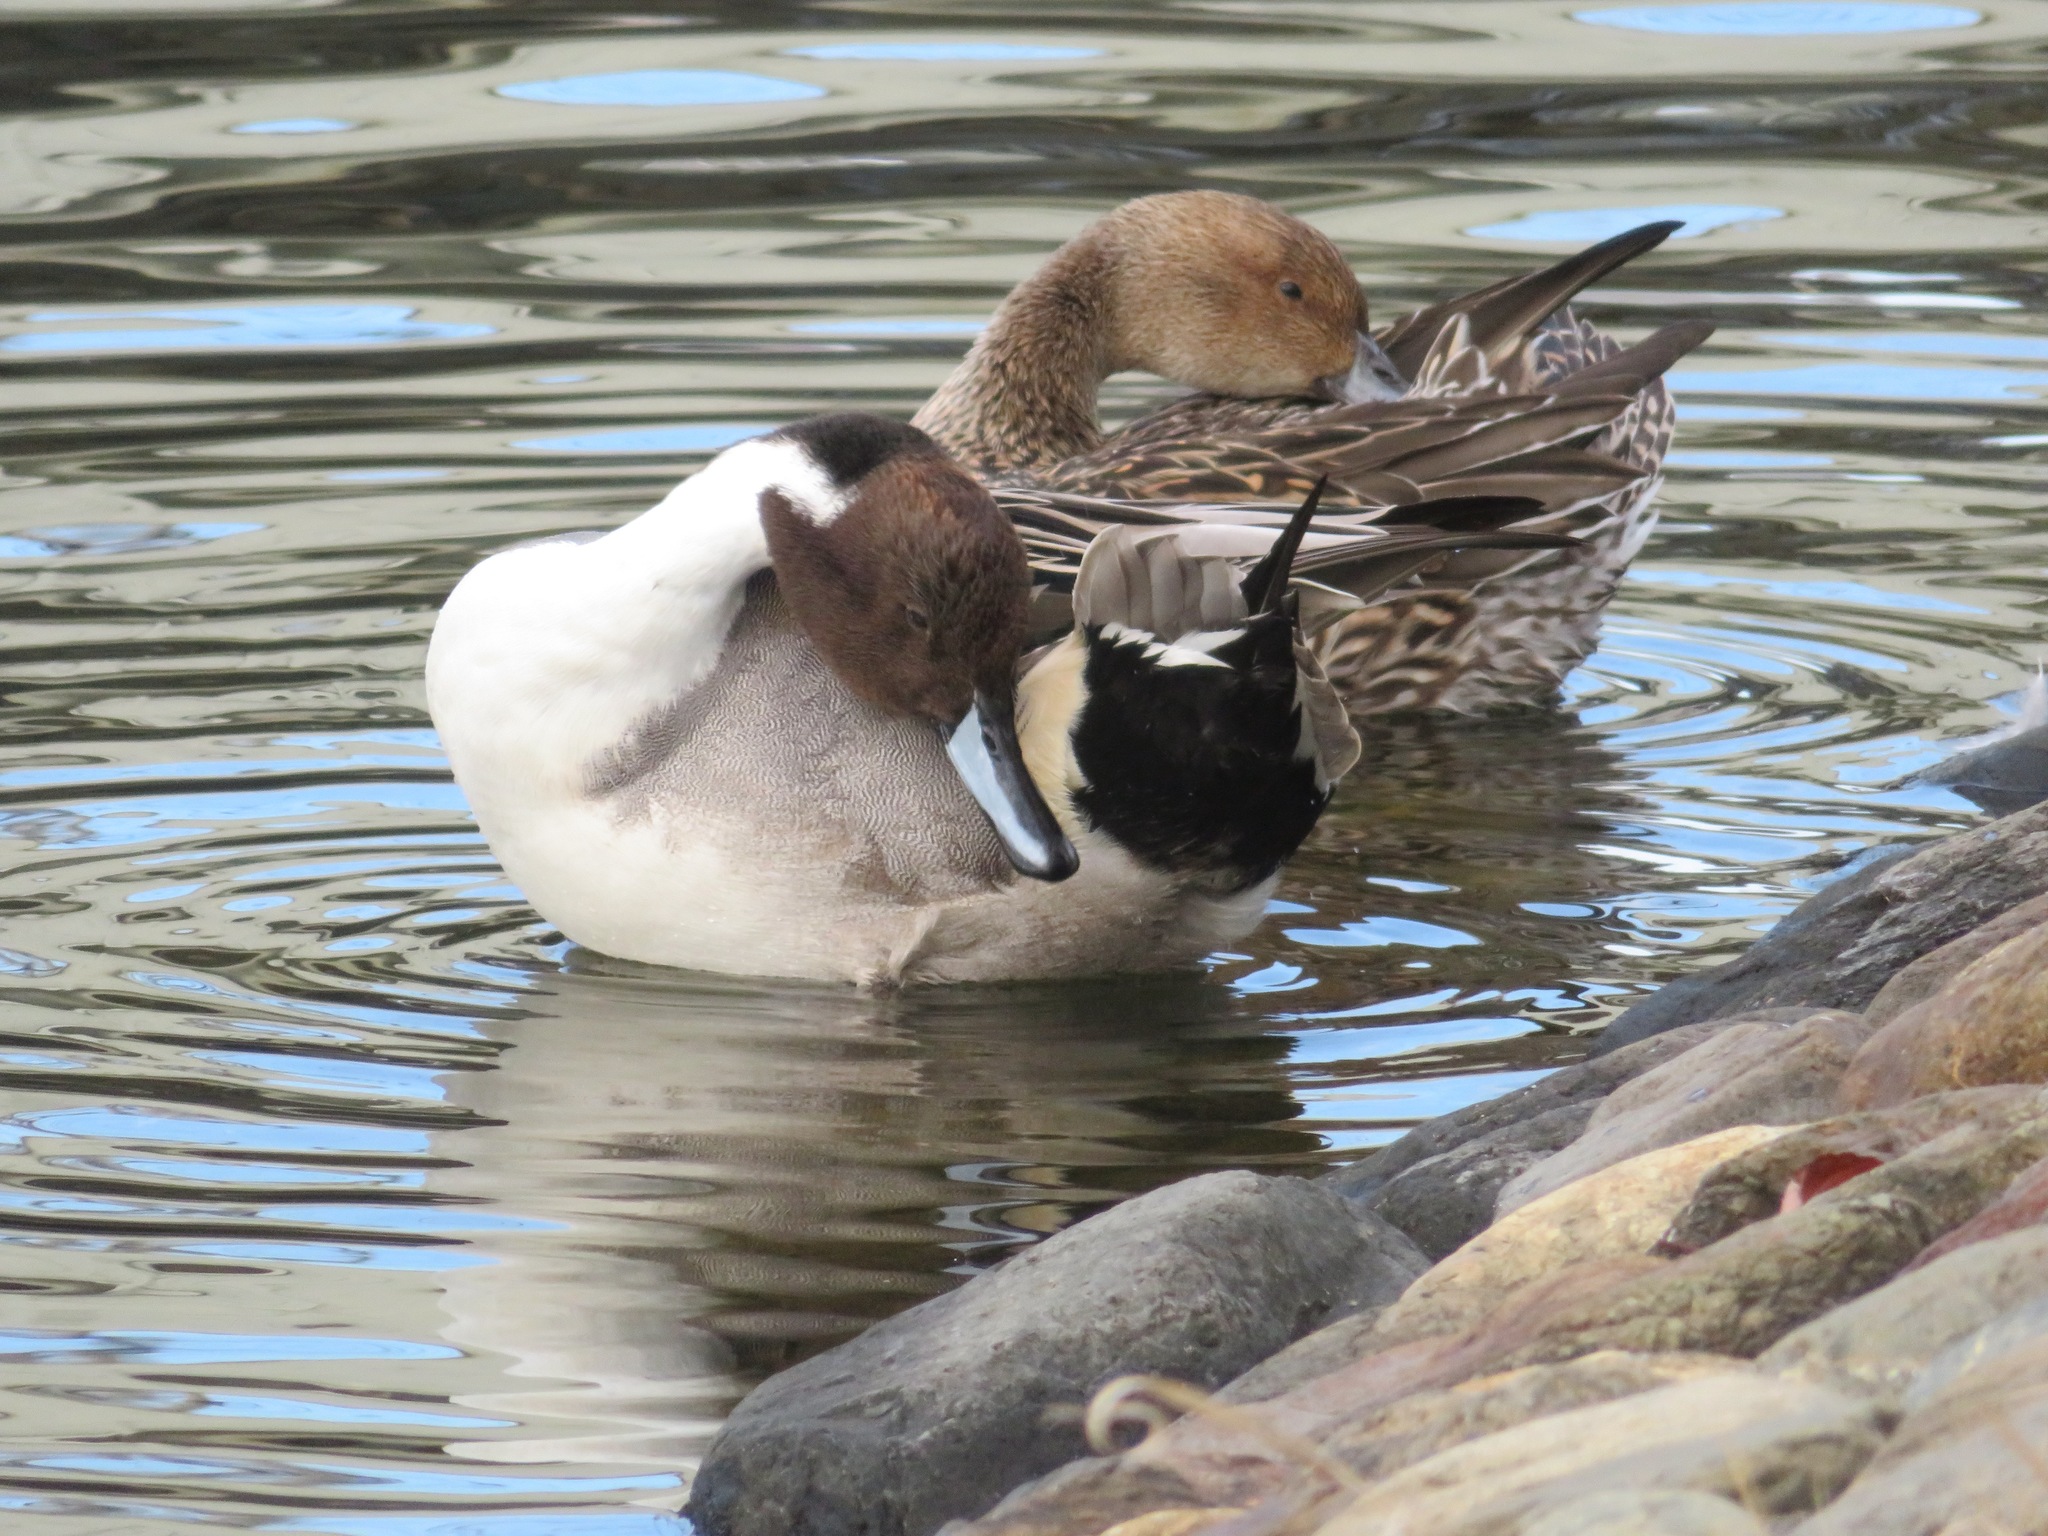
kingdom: Animalia
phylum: Chordata
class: Aves
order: Anseriformes
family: Anatidae
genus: Anas
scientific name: Anas acuta
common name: Northern pintail
